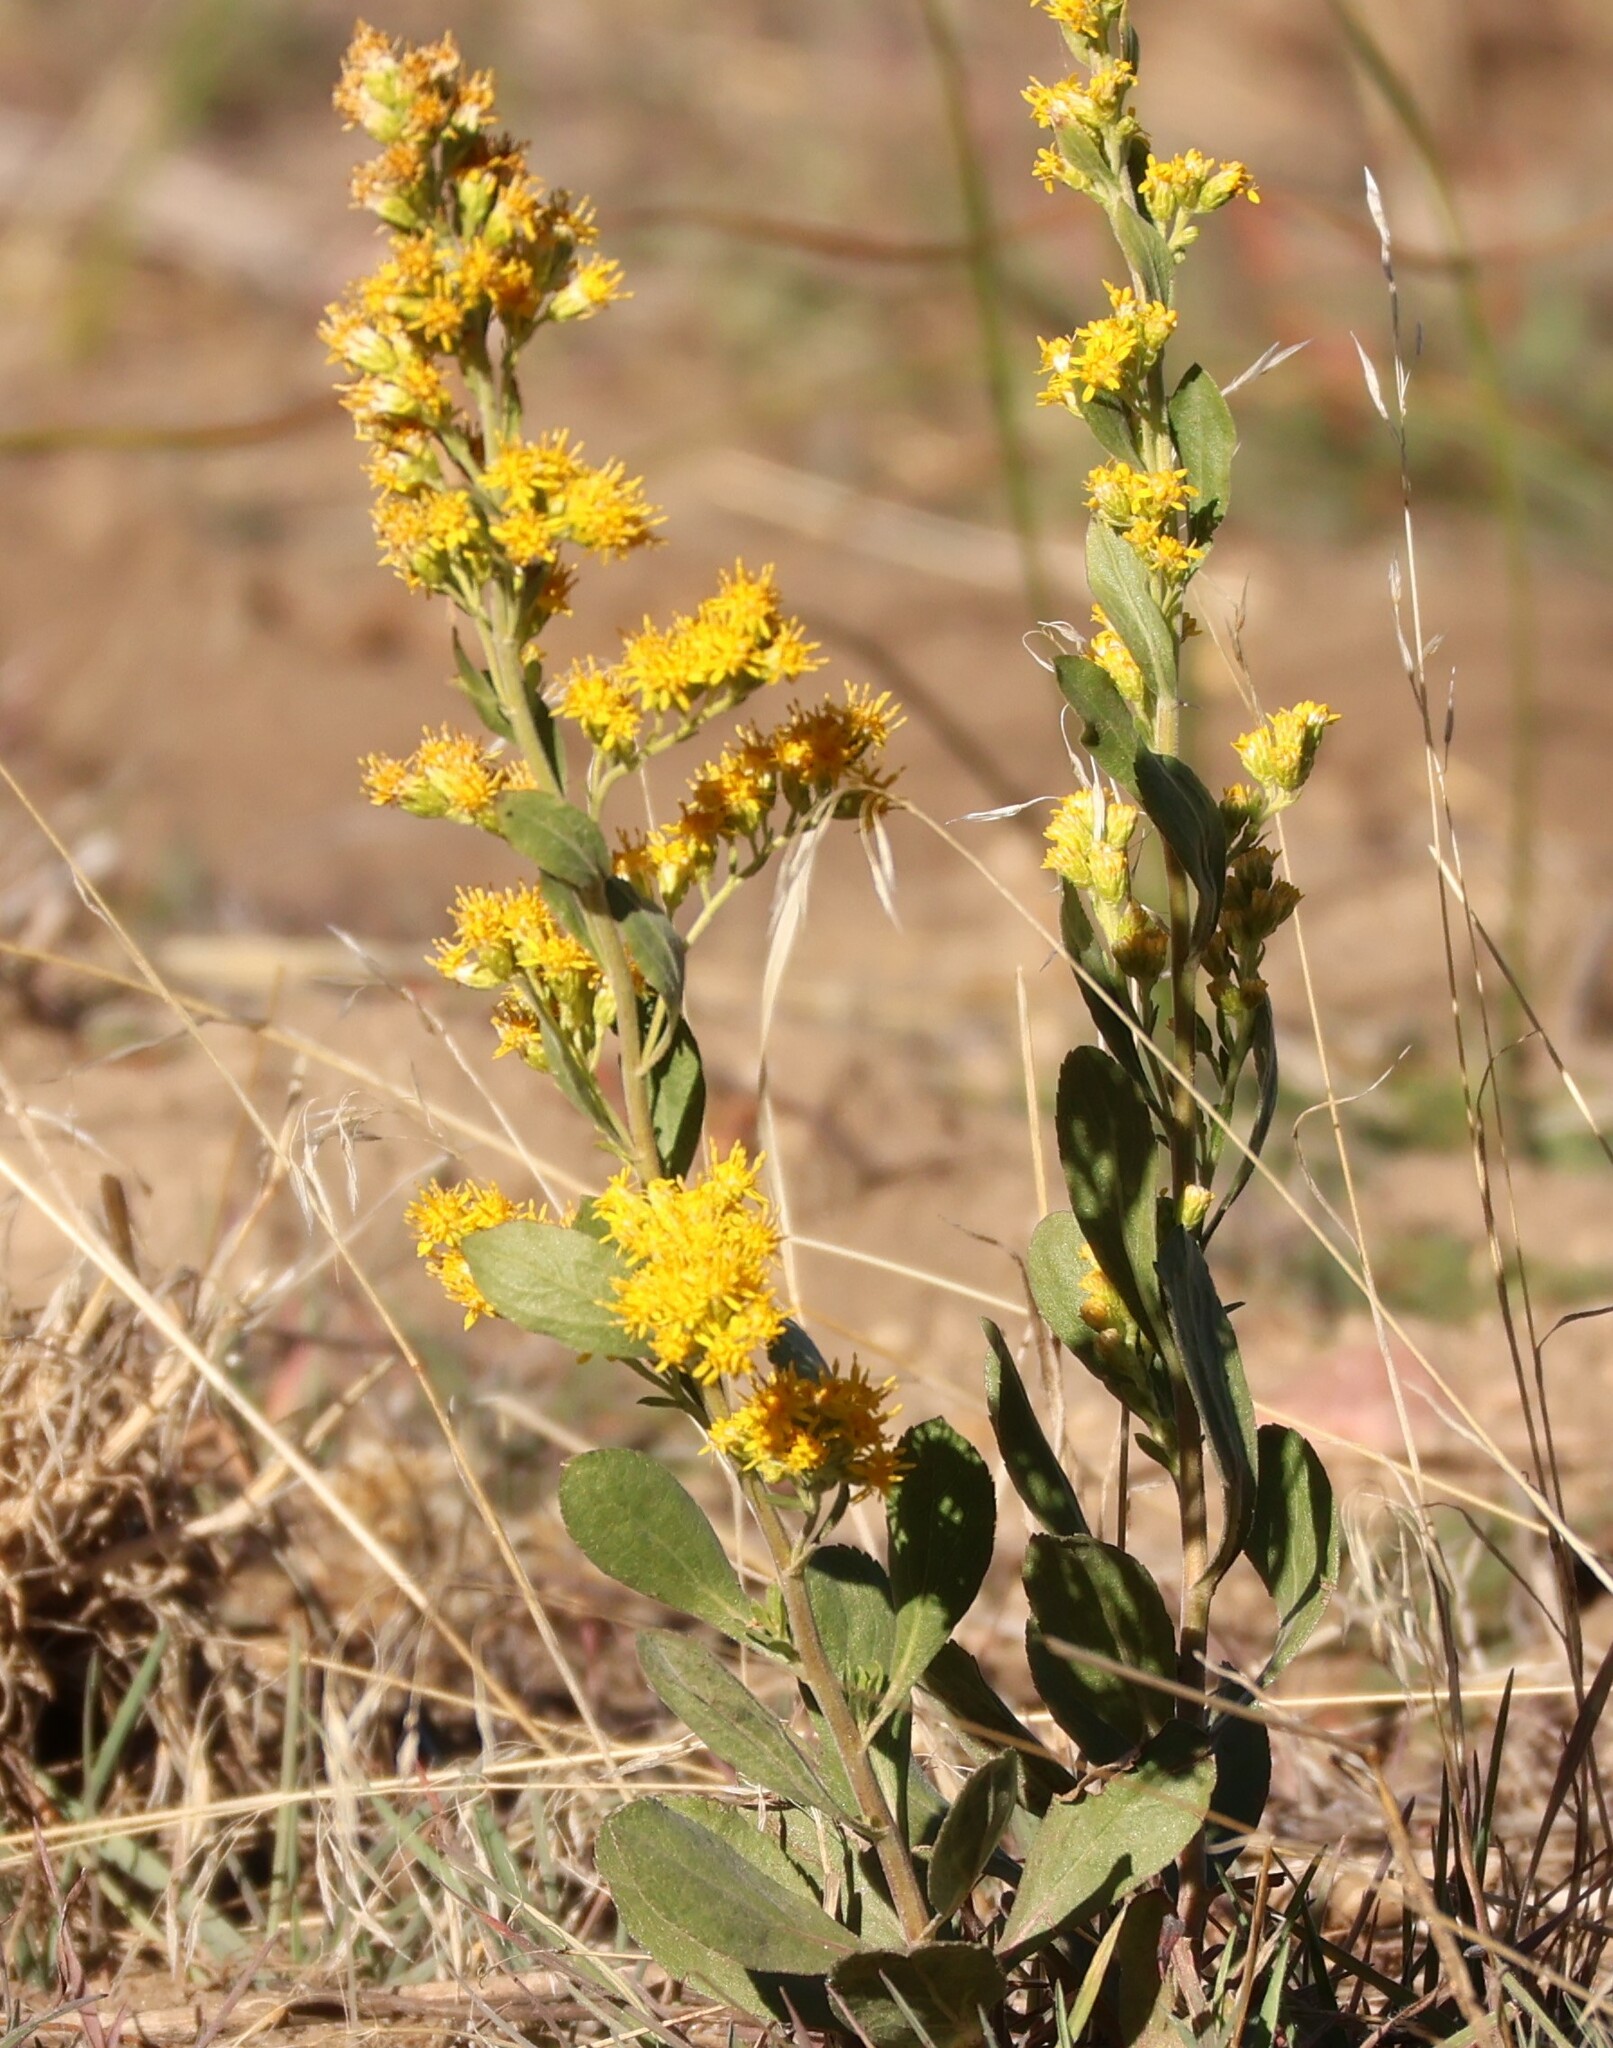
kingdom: Plantae
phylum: Tracheophyta
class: Magnoliopsida
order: Asterales
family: Asteraceae
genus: Solidago
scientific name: Solidago velutina
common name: Three-nerve goldenrod
